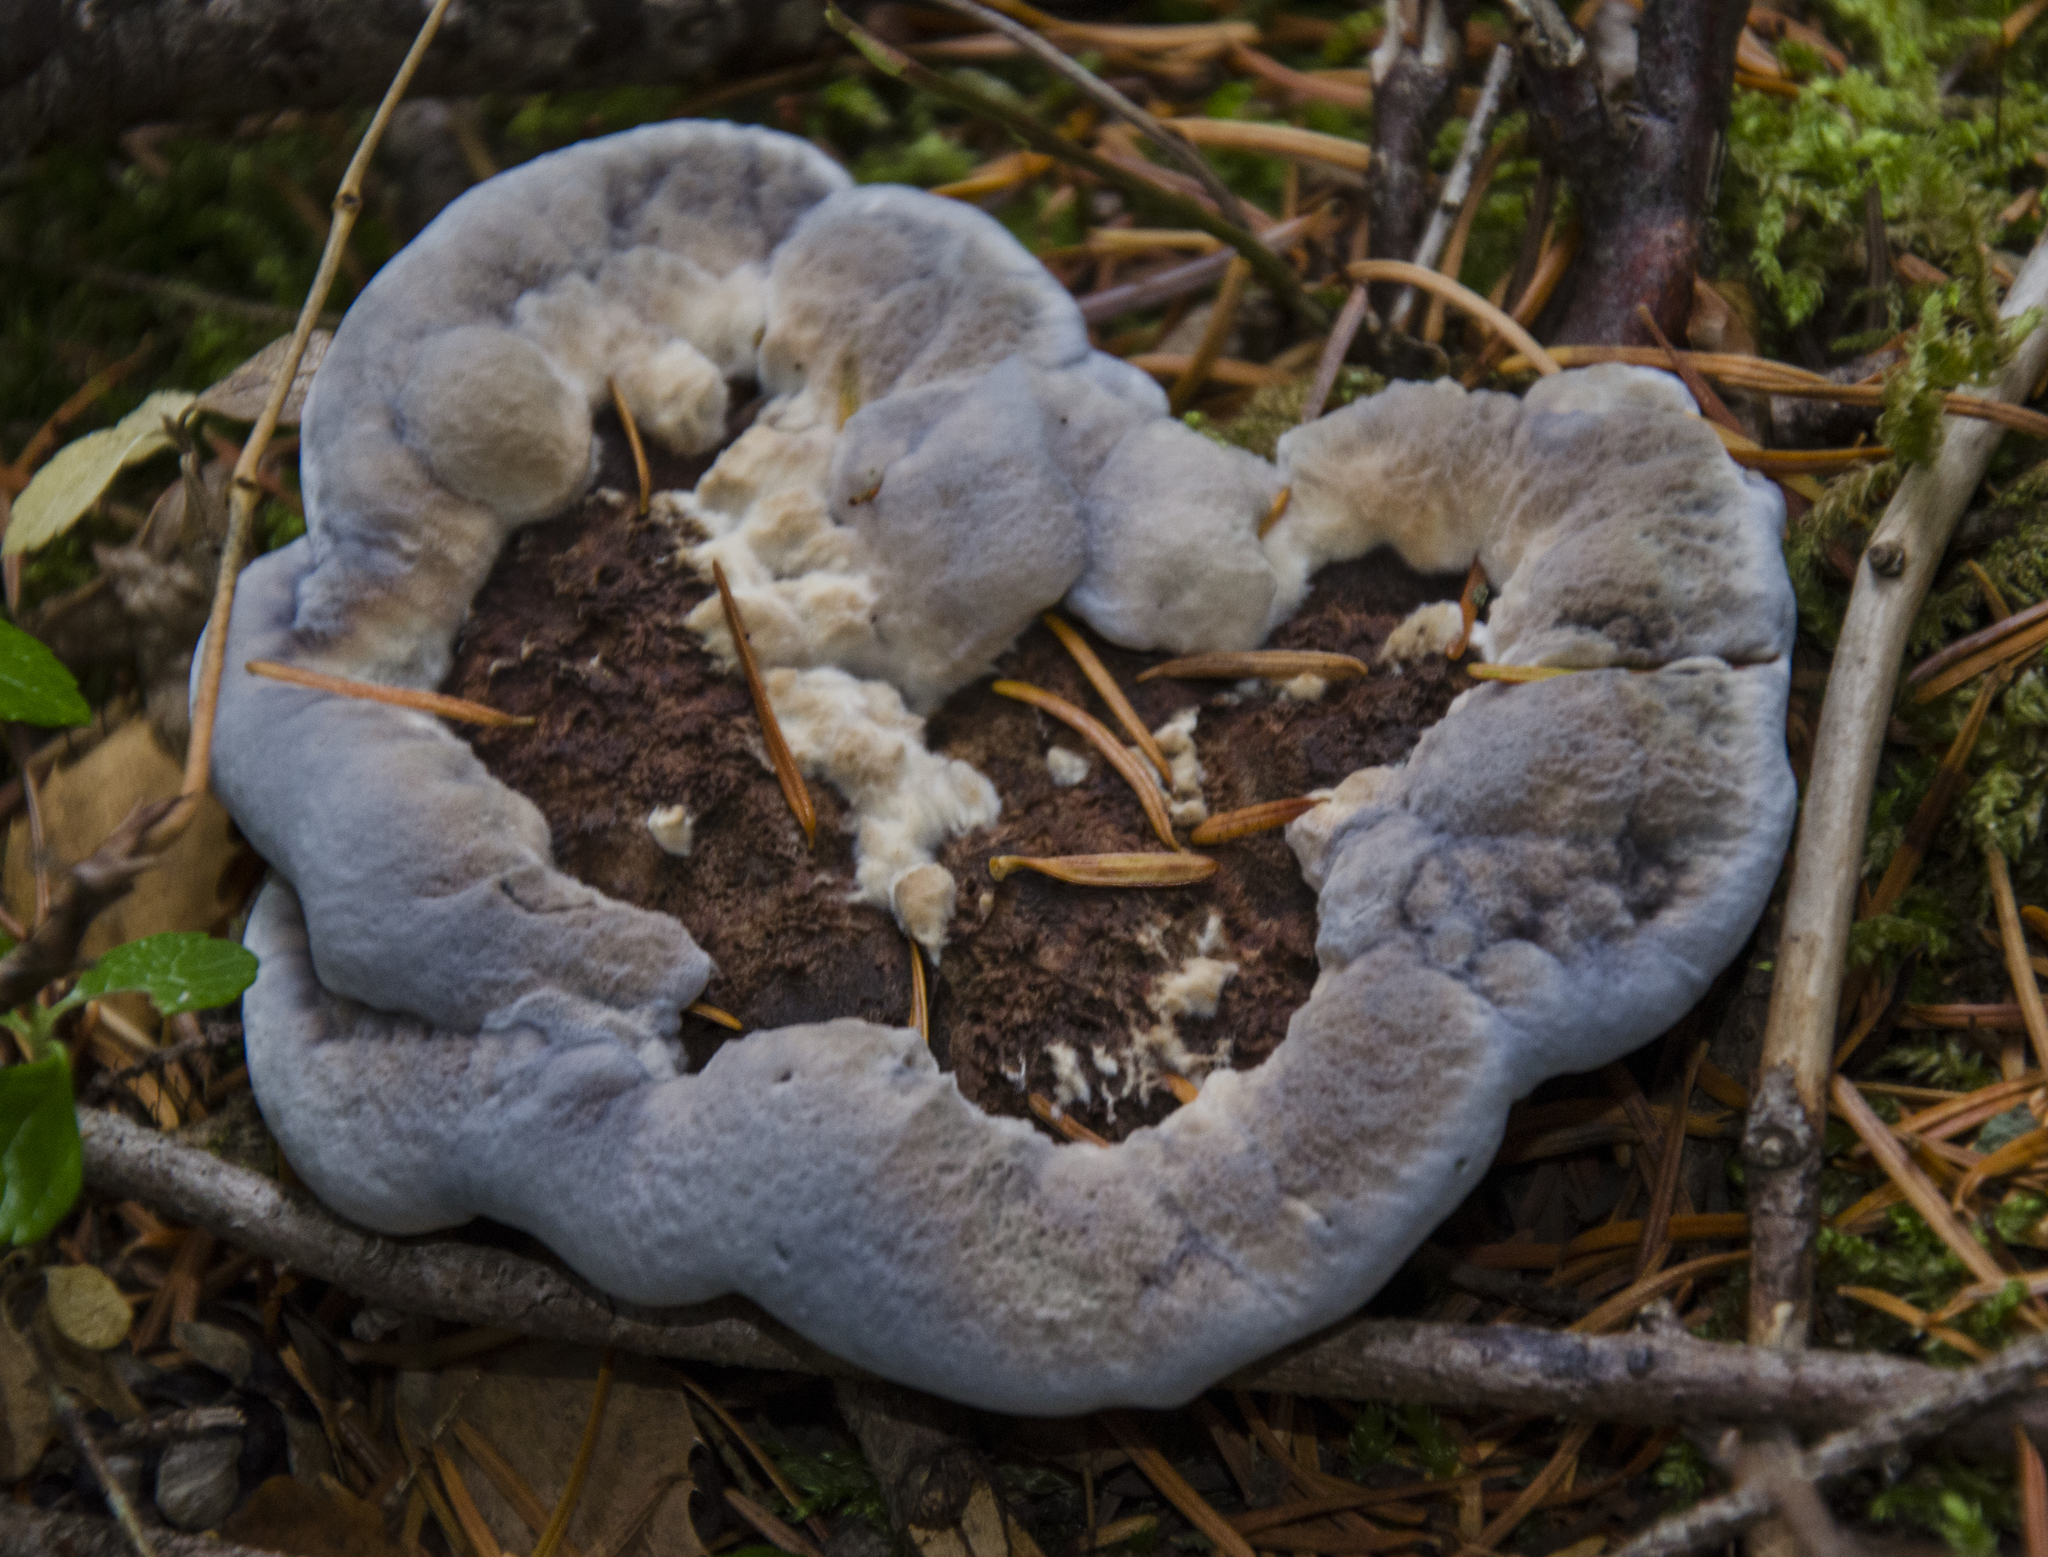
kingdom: Fungi
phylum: Basidiomycota
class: Agaricomycetes
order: Thelephorales
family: Bankeraceae
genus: Hydnellum
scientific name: Hydnellum caeruleum
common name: Blue corky spine fungus
